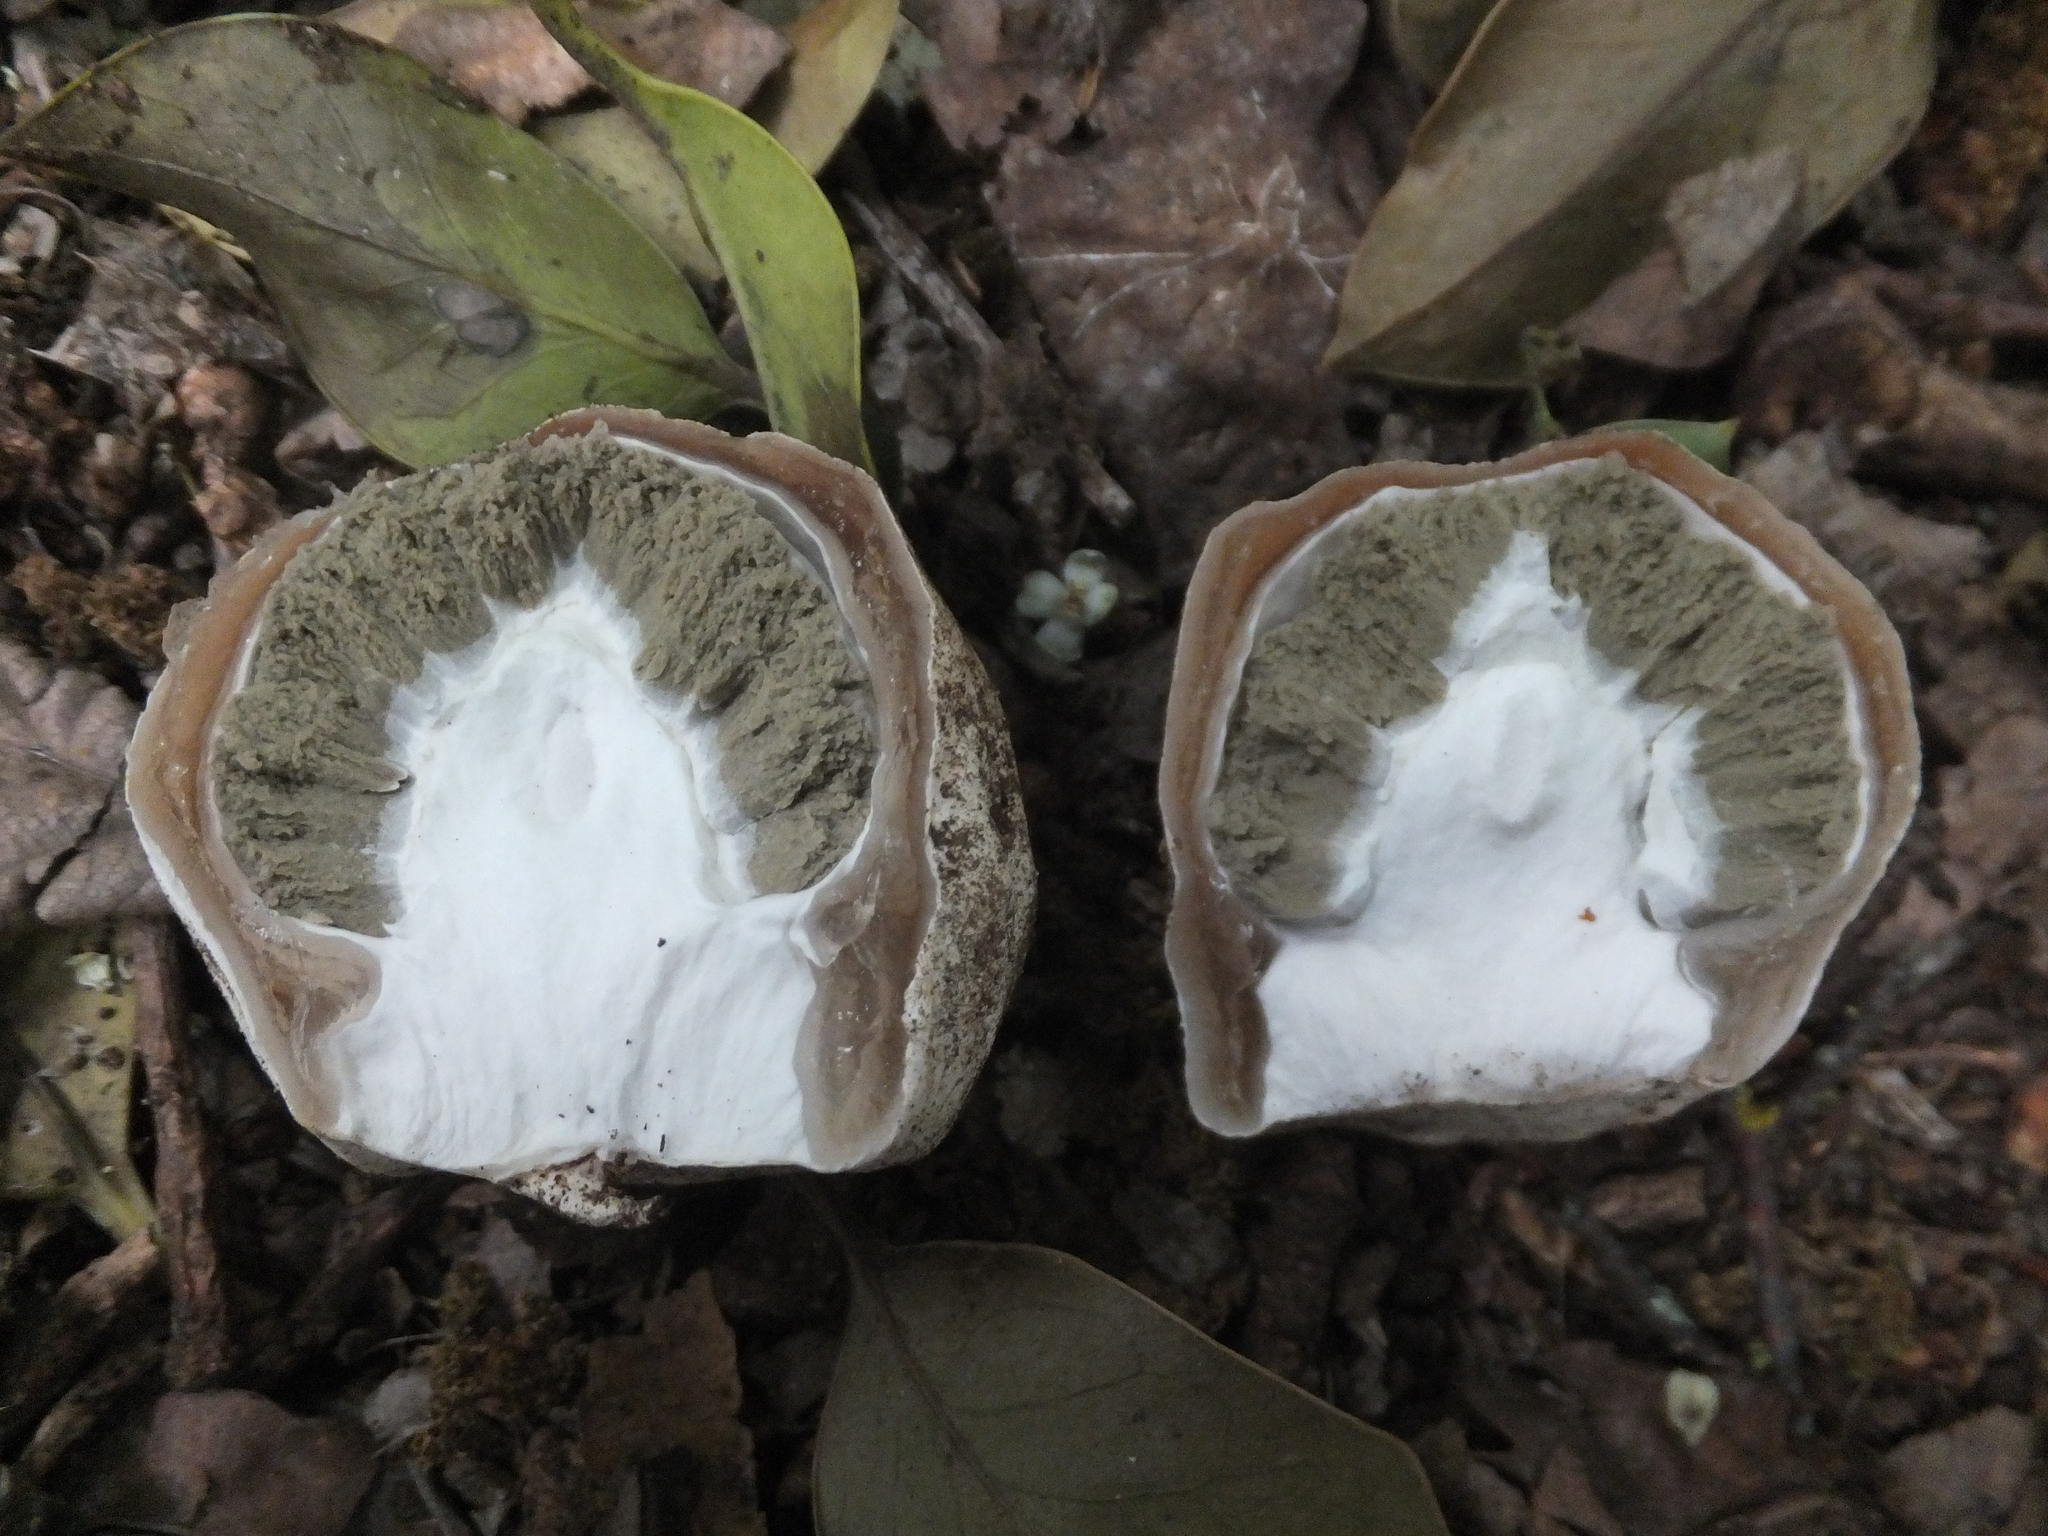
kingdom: Fungi
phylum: Basidiomycota
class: Agaricomycetes
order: Phallales
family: Phallaceae
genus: Phallus
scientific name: Phallus impudicus
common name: Common stinkhorn
